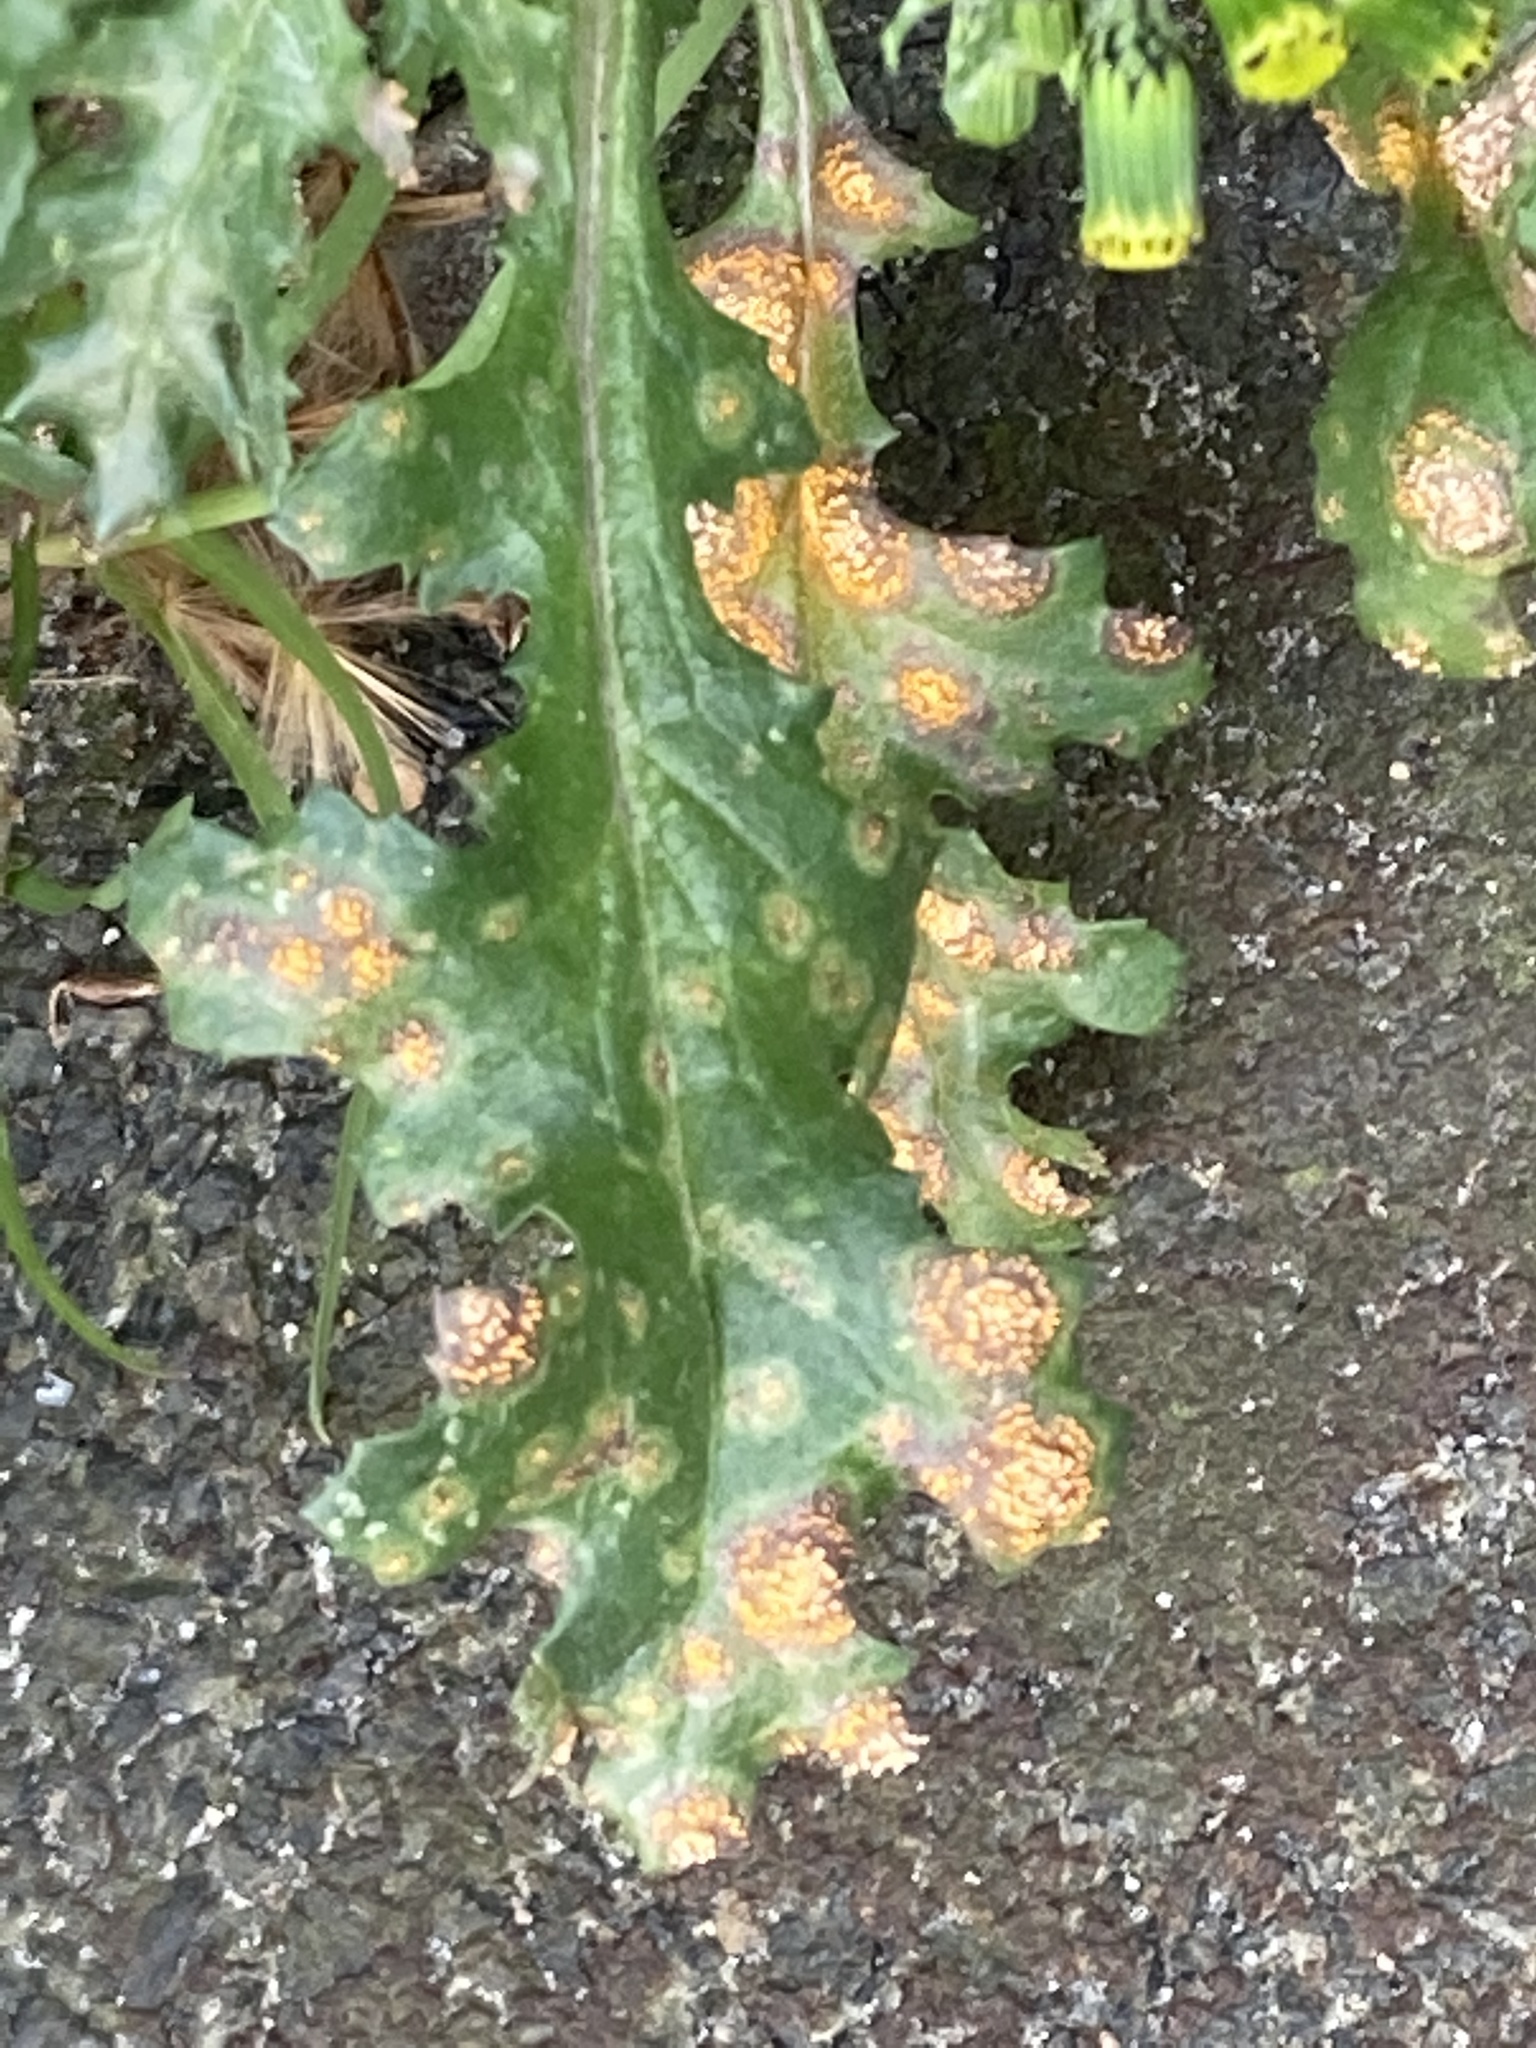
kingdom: Fungi
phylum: Basidiomycota
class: Pucciniomycetes
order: Pucciniales
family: Pucciniaceae
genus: Puccinia
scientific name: Puccinia lagenophorae
